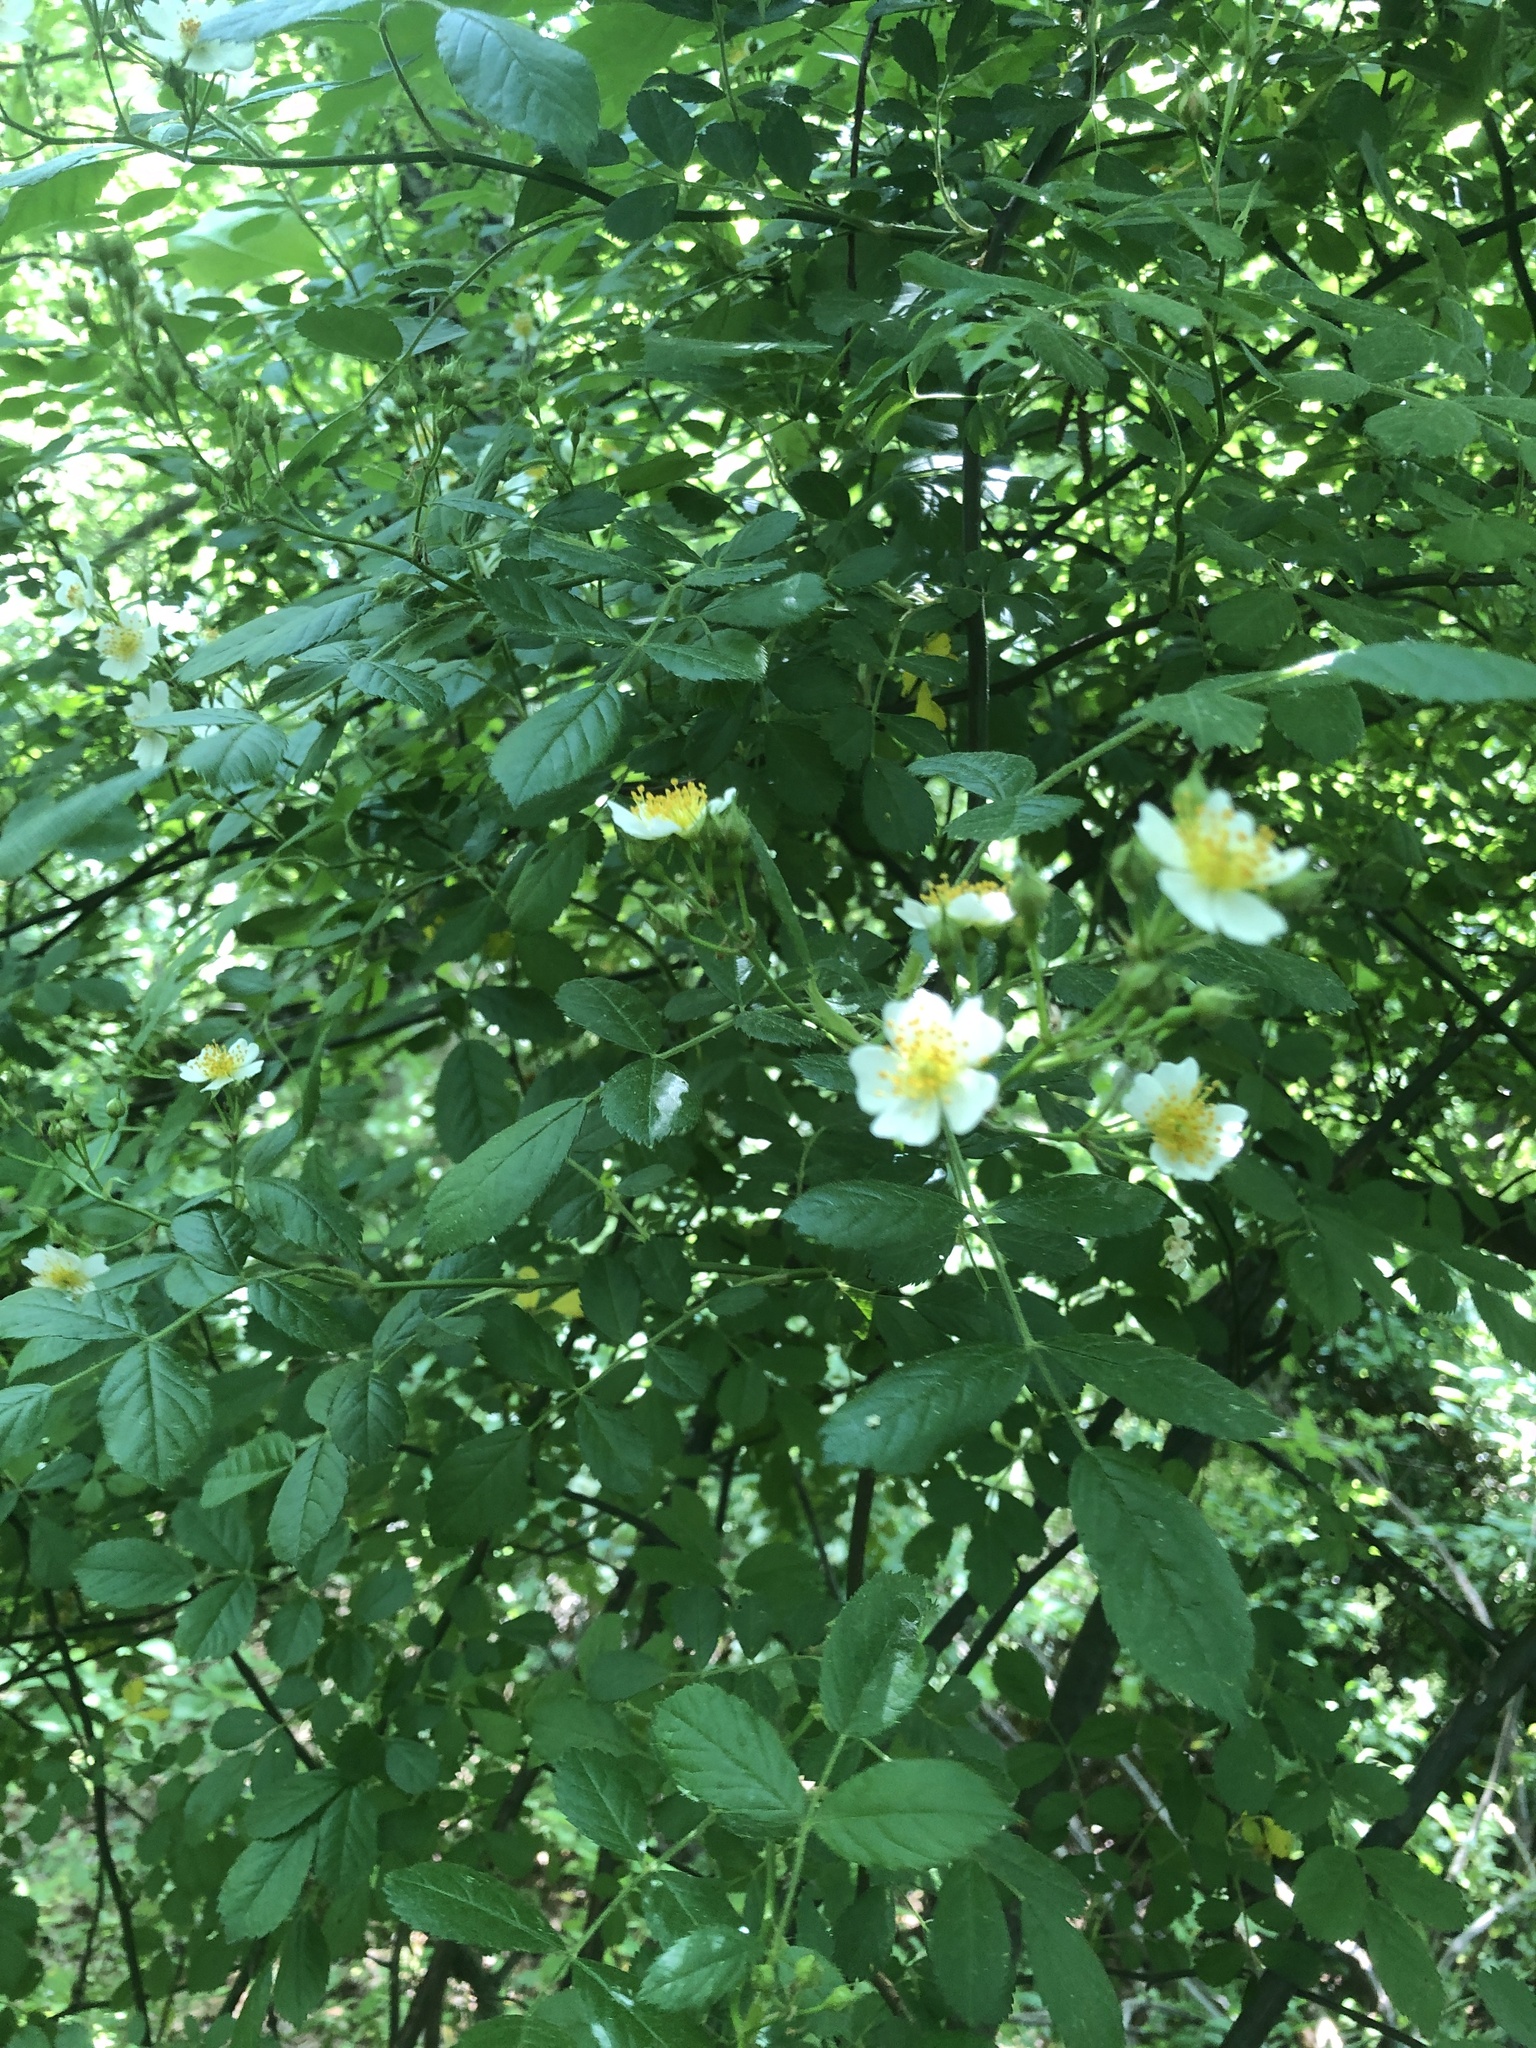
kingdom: Plantae
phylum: Tracheophyta
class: Magnoliopsida
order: Rosales
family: Rosaceae
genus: Rosa
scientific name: Rosa multiflora
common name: Multiflora rose
